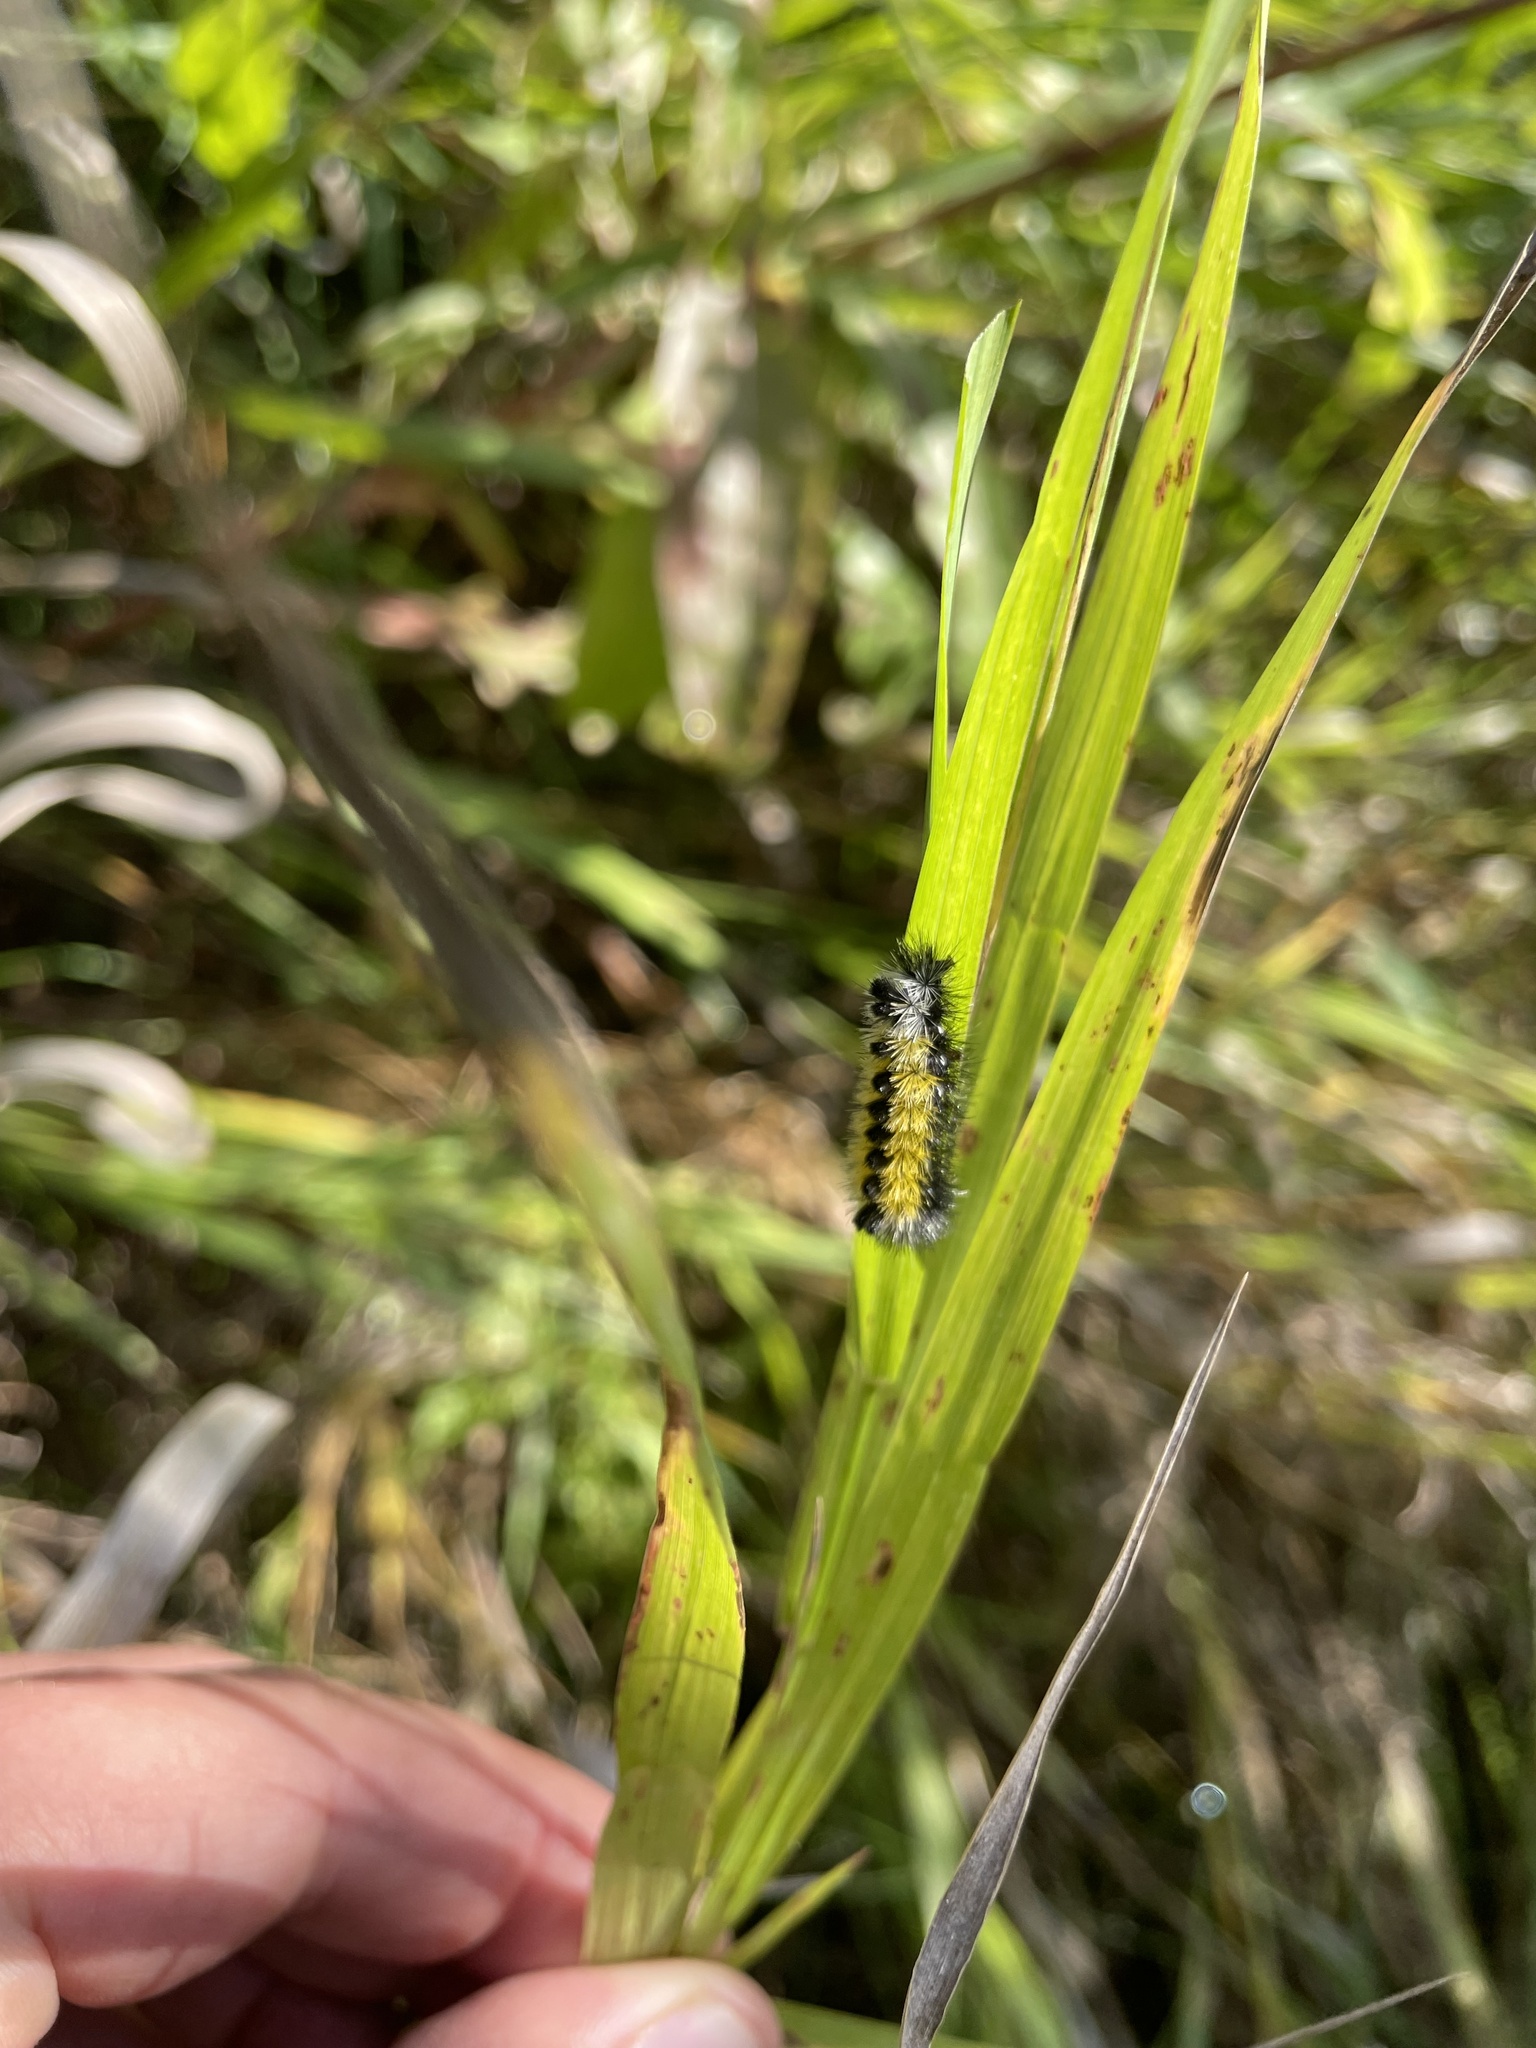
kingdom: Animalia
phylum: Arthropoda
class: Insecta
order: Lepidoptera
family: Erebidae
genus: Ctenucha
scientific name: Ctenucha virginica
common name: Virginia ctenucha moth
